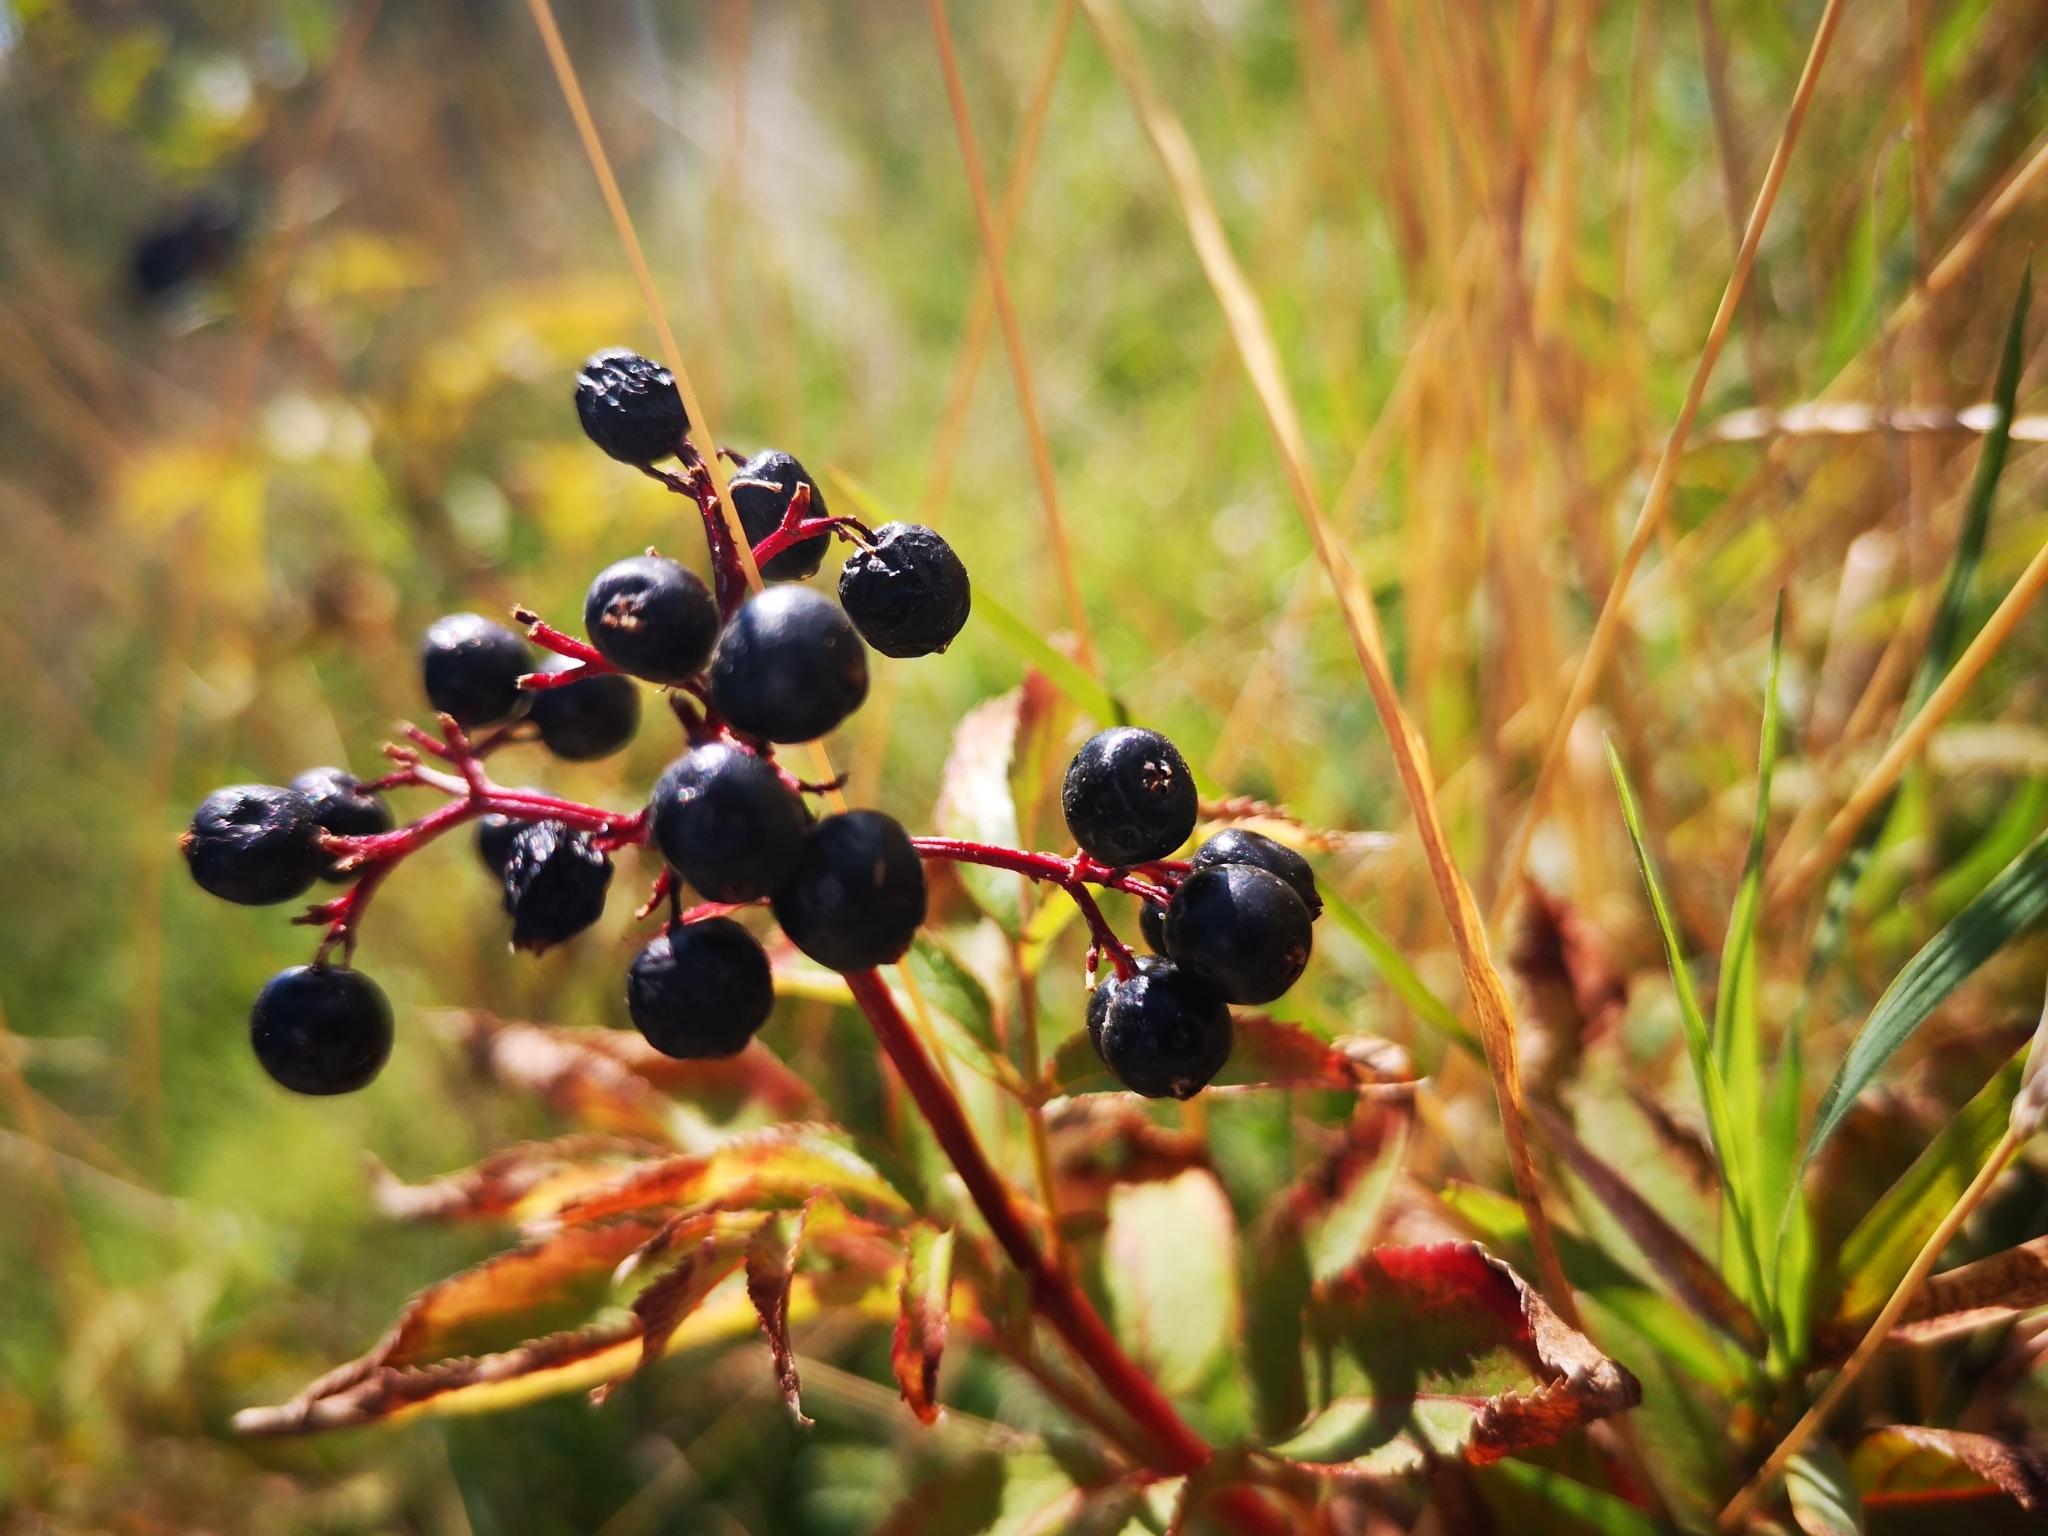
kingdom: Plantae
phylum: Tracheophyta
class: Magnoliopsida
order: Dipsacales
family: Viburnaceae
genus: Sambucus
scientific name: Sambucus ebulus
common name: Dwarf elder
